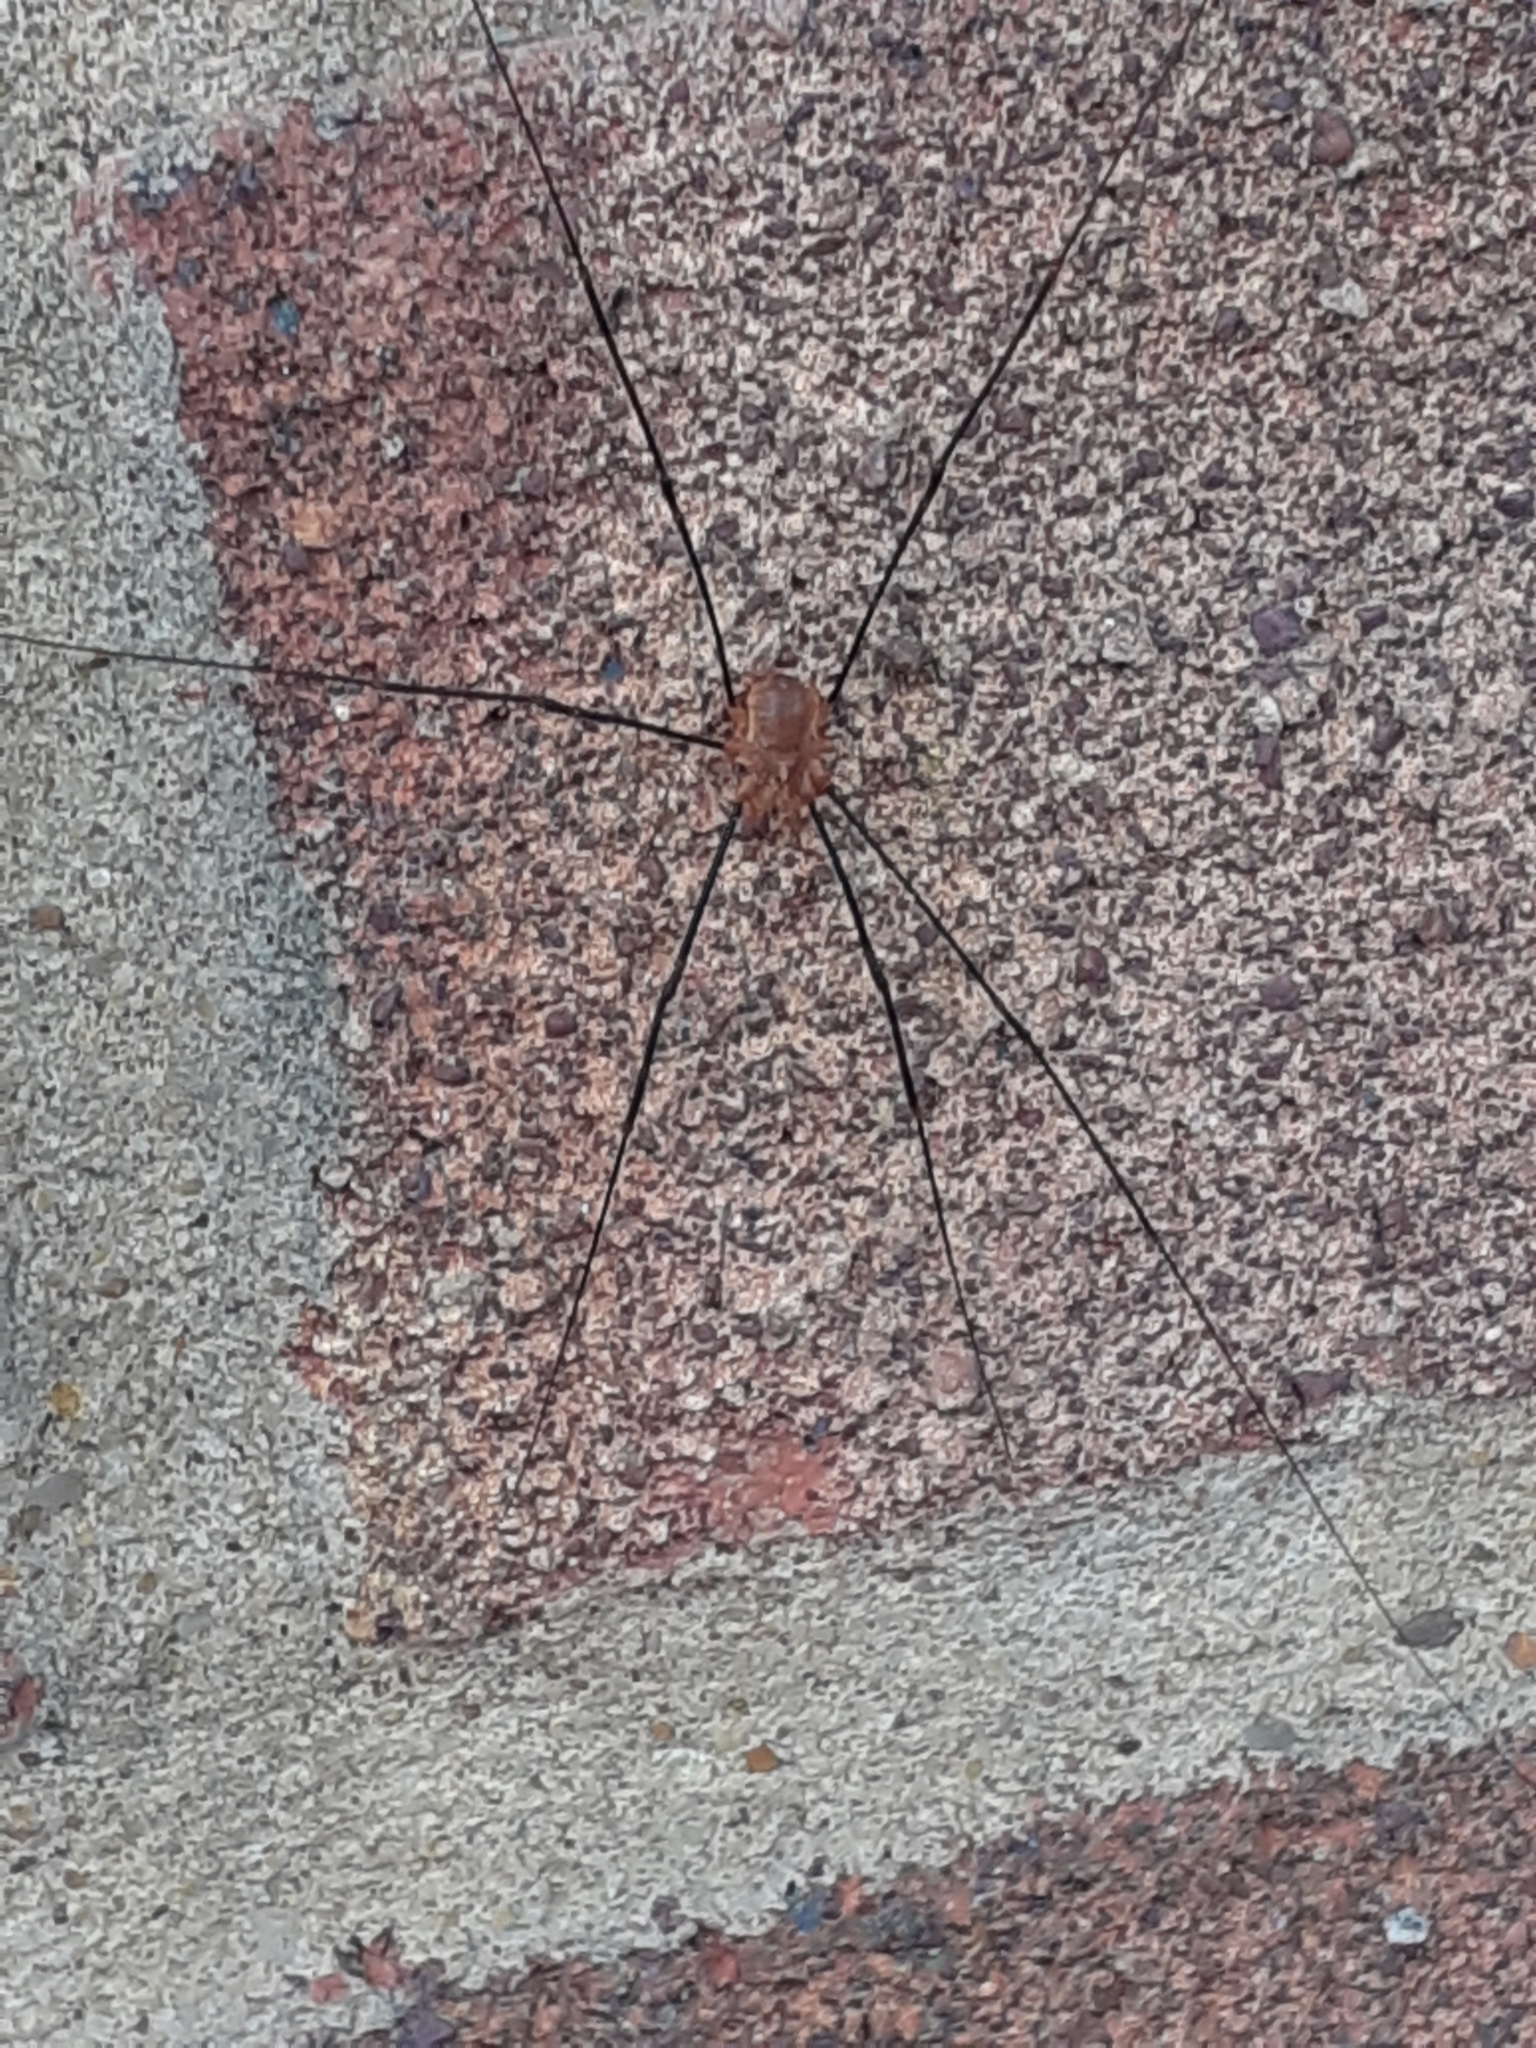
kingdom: Animalia
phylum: Arthropoda
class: Arachnida
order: Opiliones
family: Phalangiidae
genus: Opilio
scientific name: Opilio canestrinii
